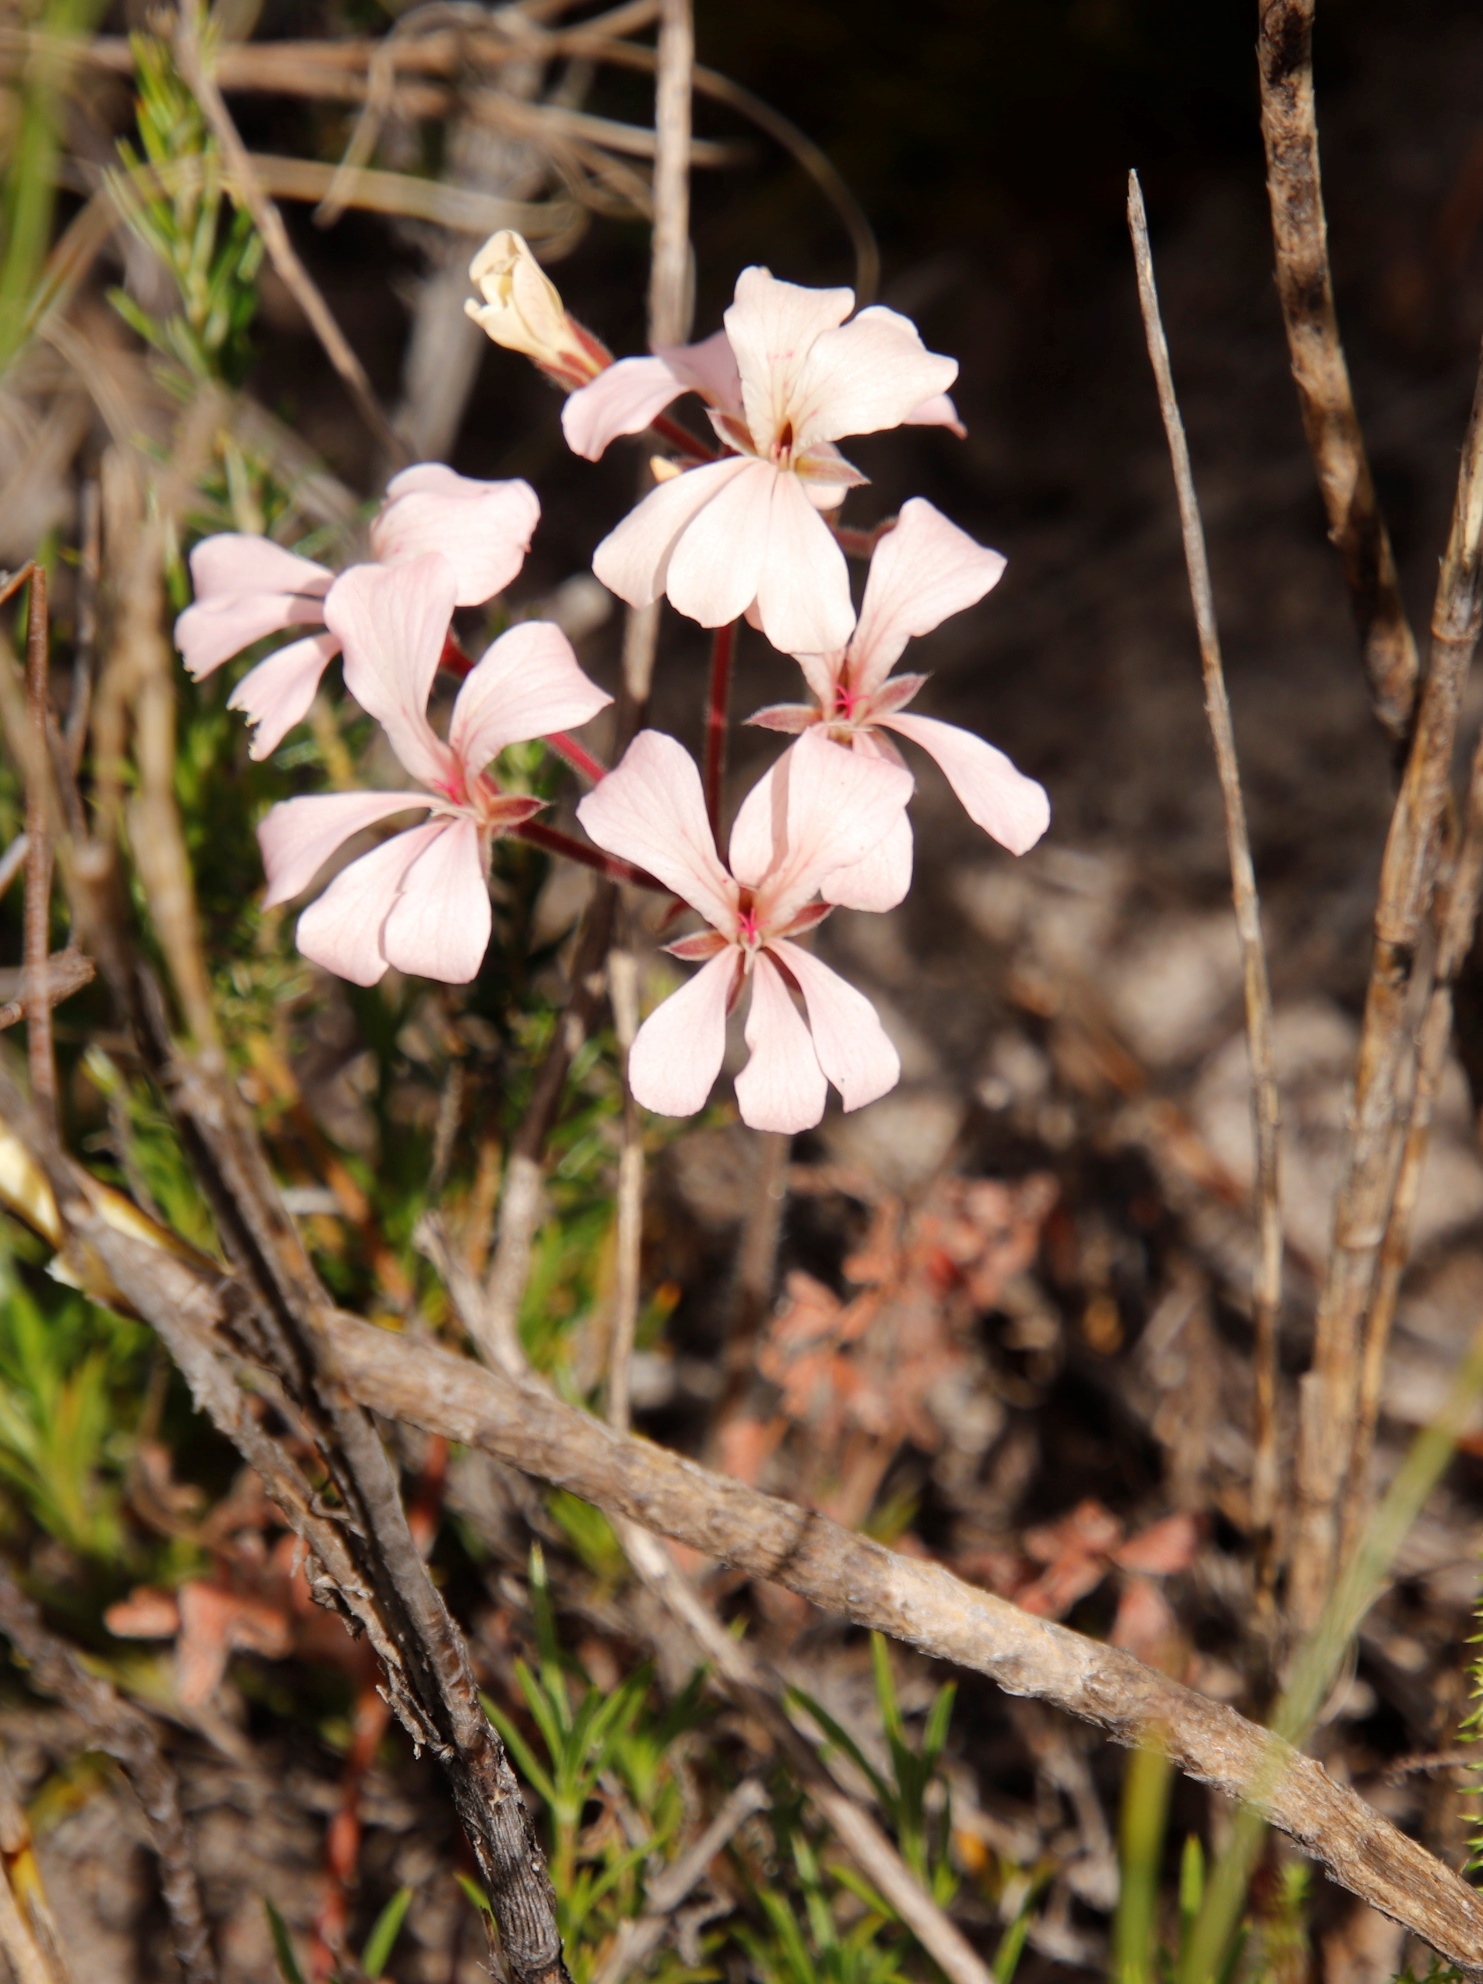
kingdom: Plantae
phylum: Tracheophyta
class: Magnoliopsida
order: Geraniales
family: Geraniaceae
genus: Pelargonium
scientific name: Pelargonium pinnatum
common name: Pinnated pelargonium
